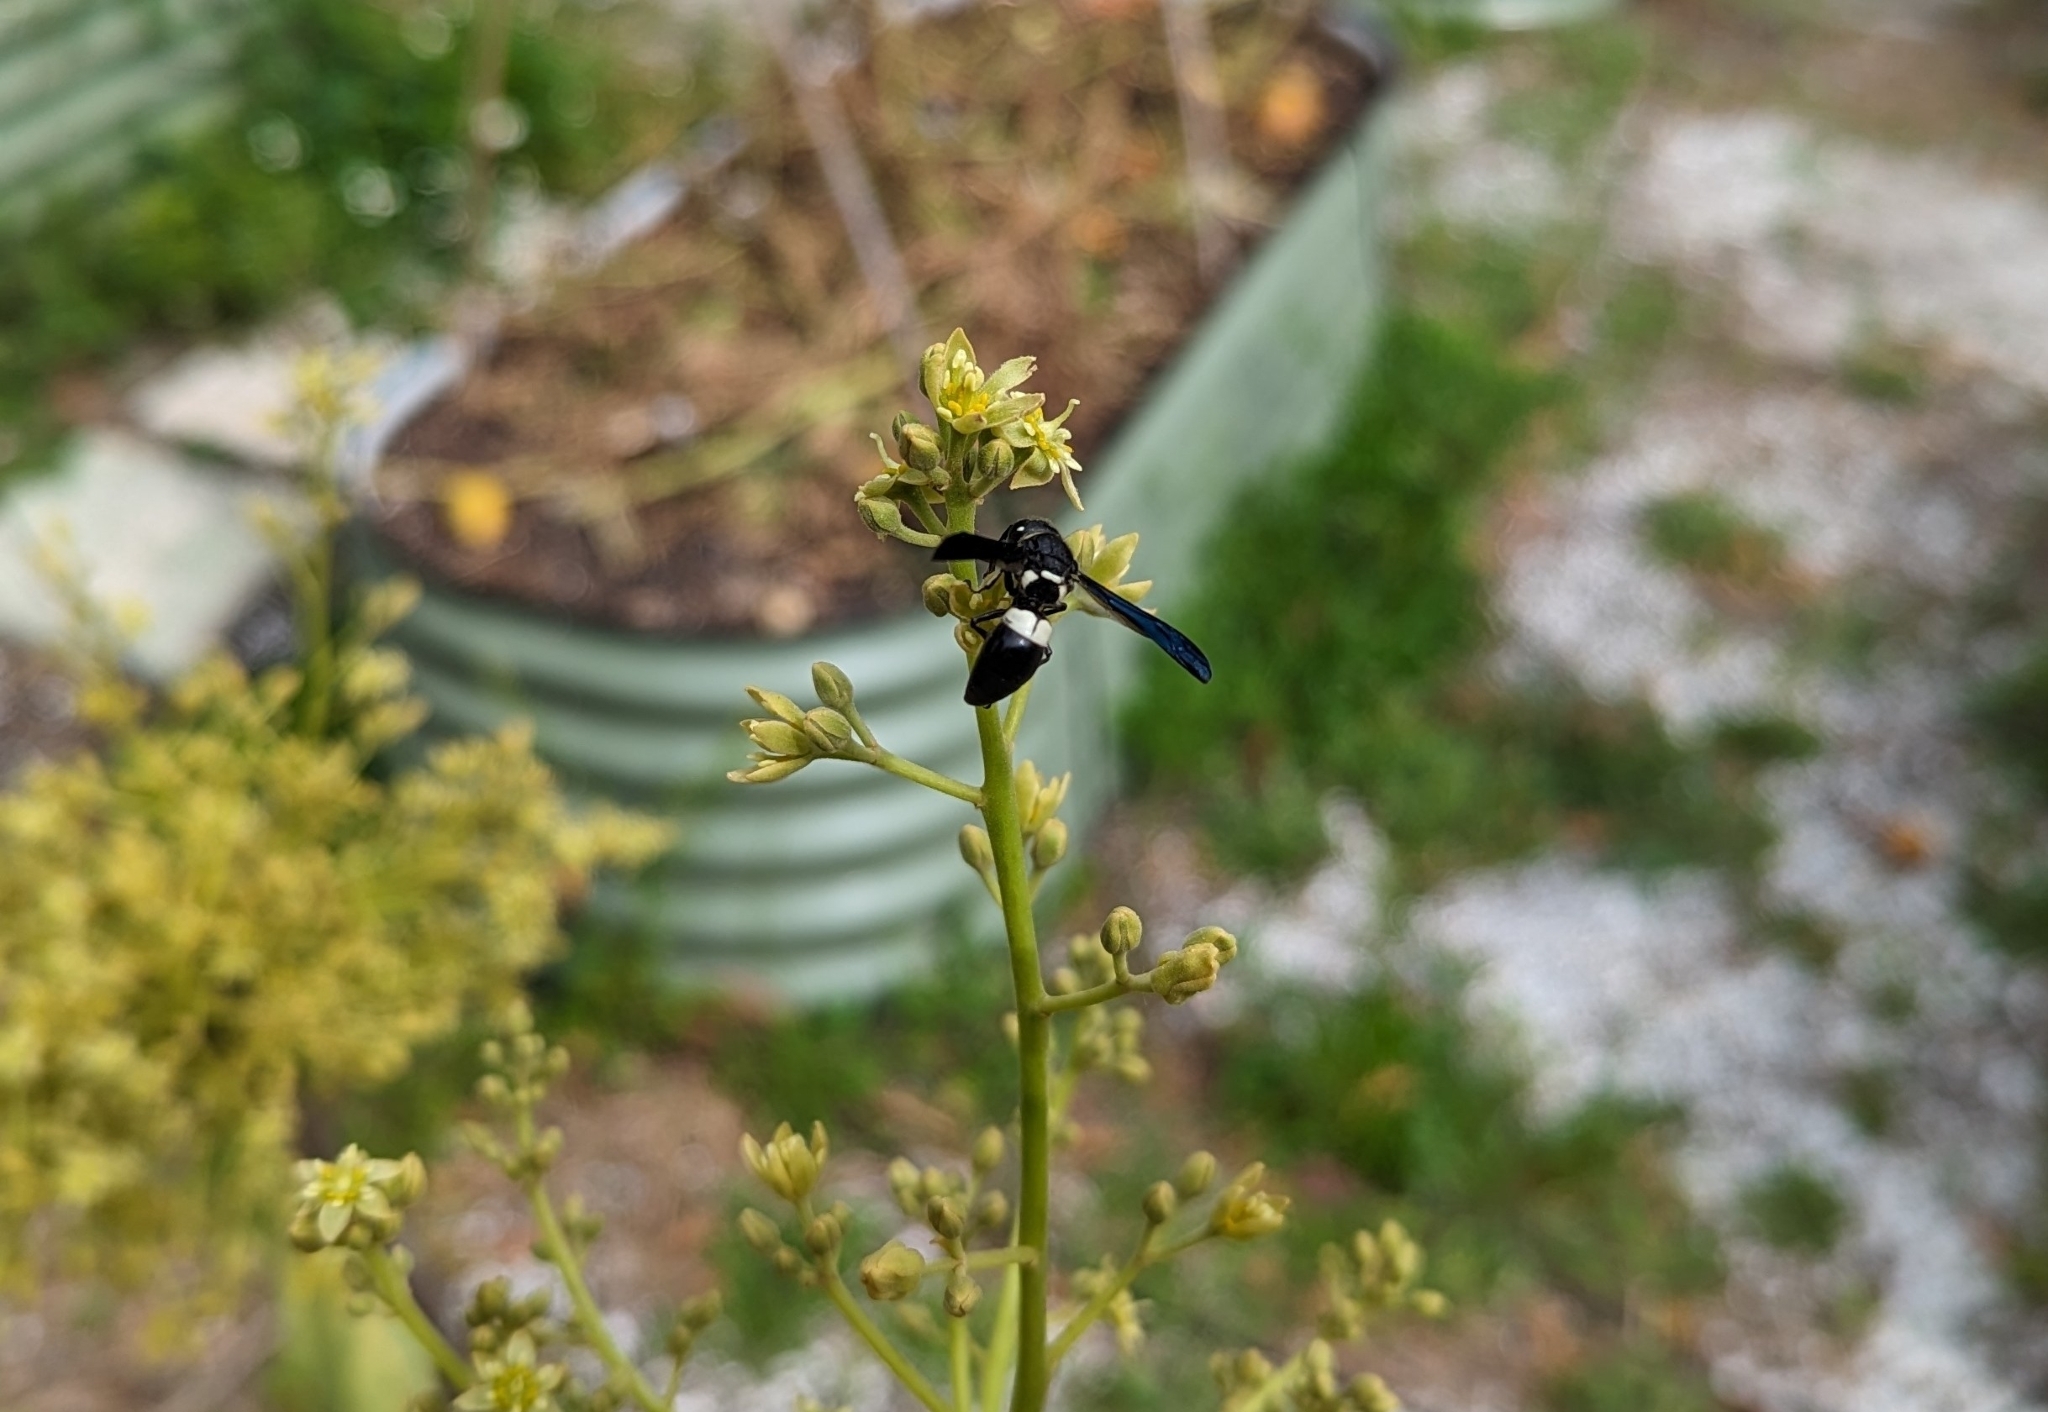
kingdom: Animalia
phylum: Arthropoda
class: Insecta
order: Hymenoptera
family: Eumenidae
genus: Euodynerus
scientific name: Euodynerus bidens
